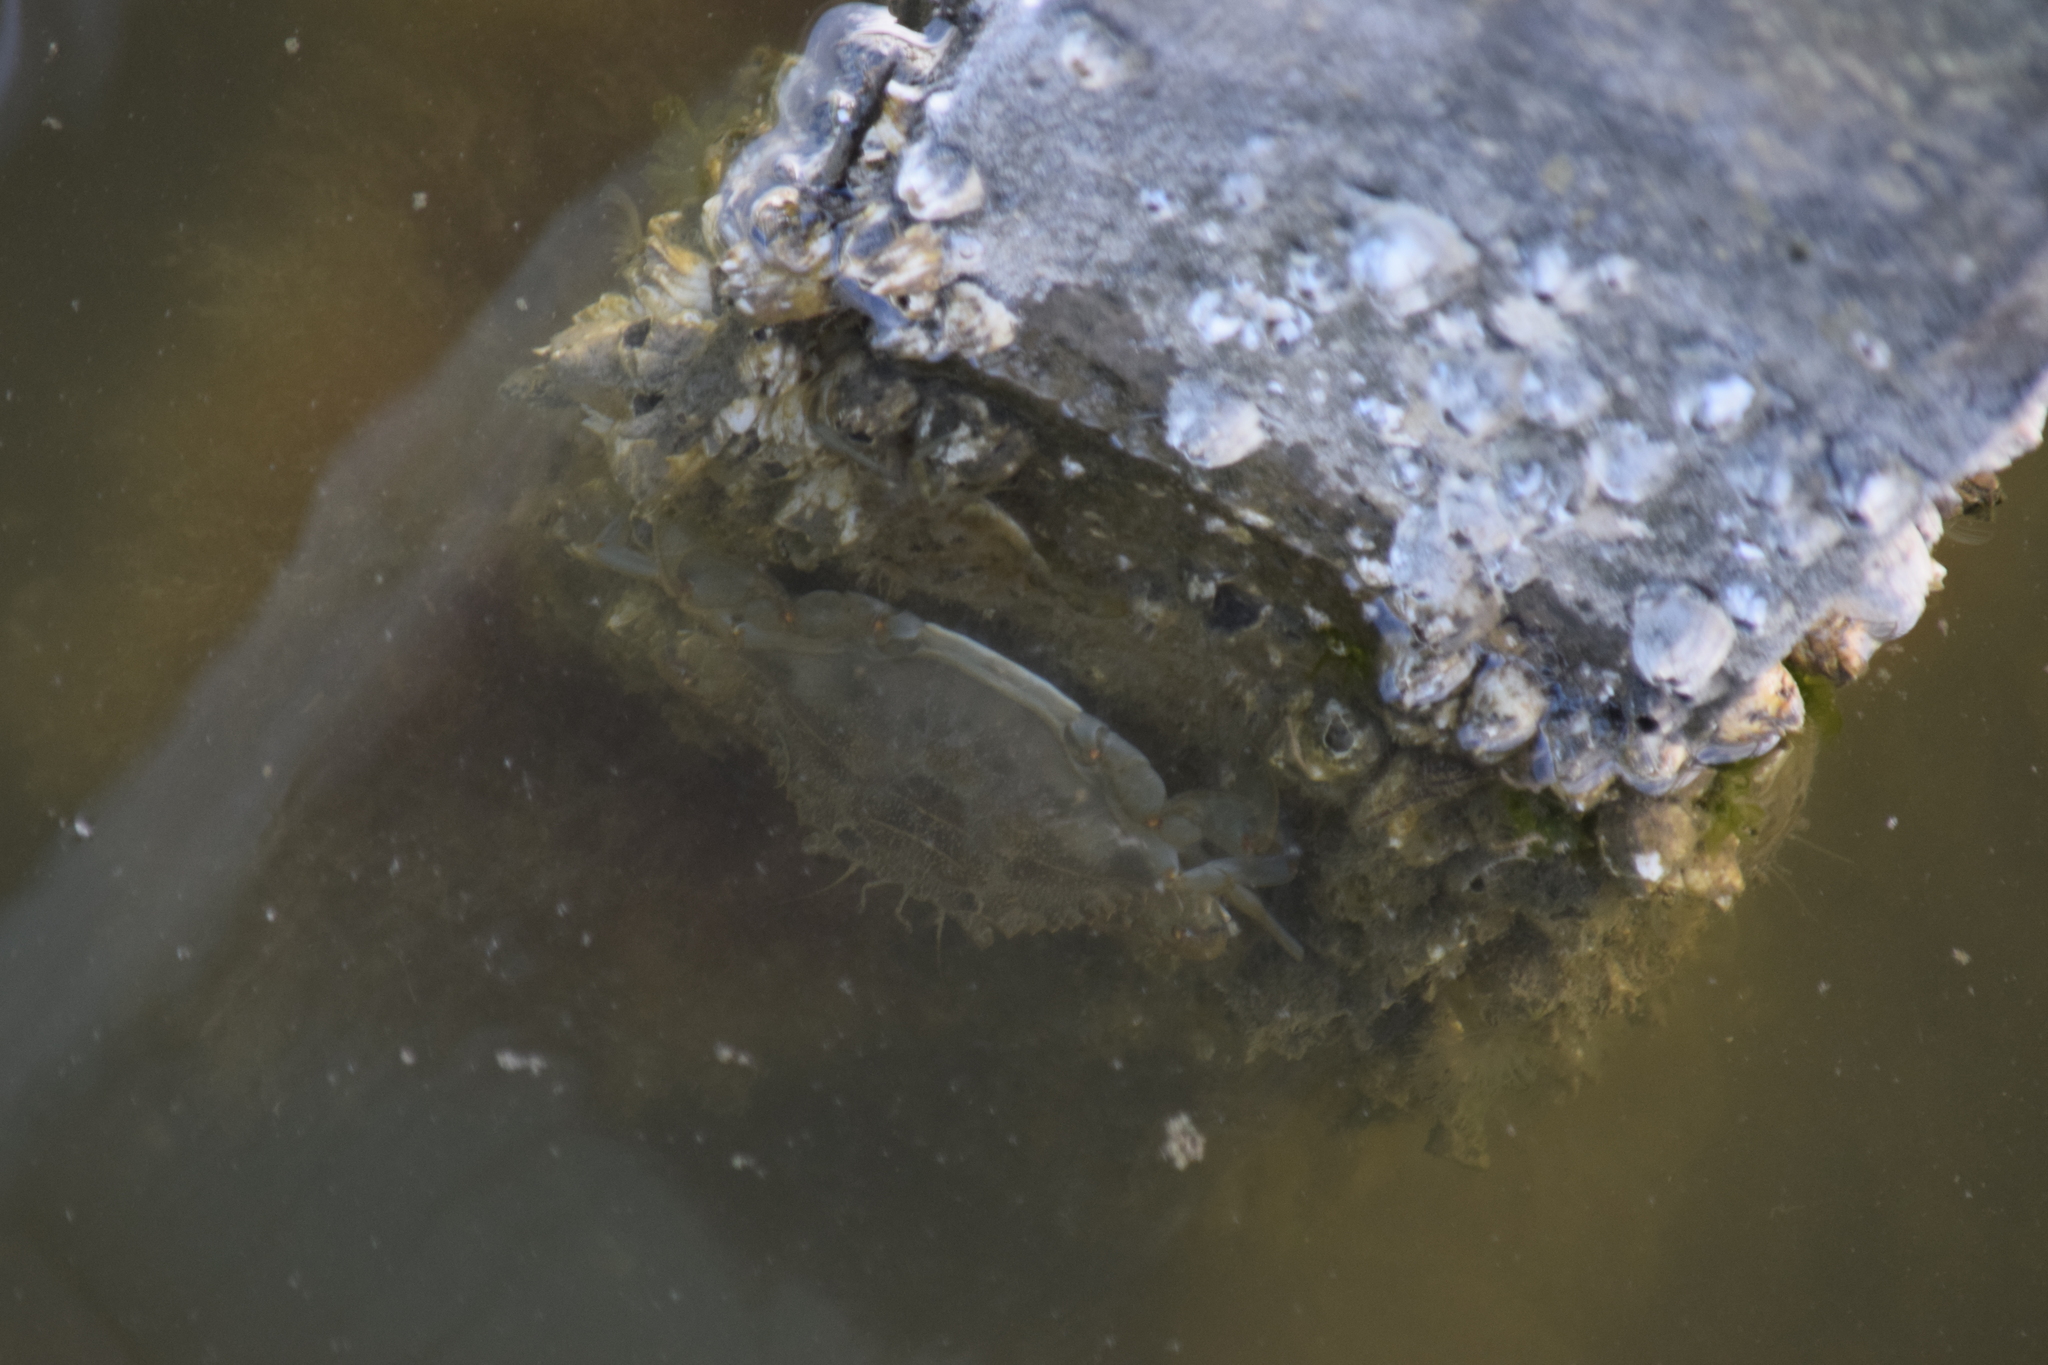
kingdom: Animalia
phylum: Arthropoda
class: Malacostraca
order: Decapoda
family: Portunidae
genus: Callinectes
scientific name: Callinectes sapidus
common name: Blue crab
